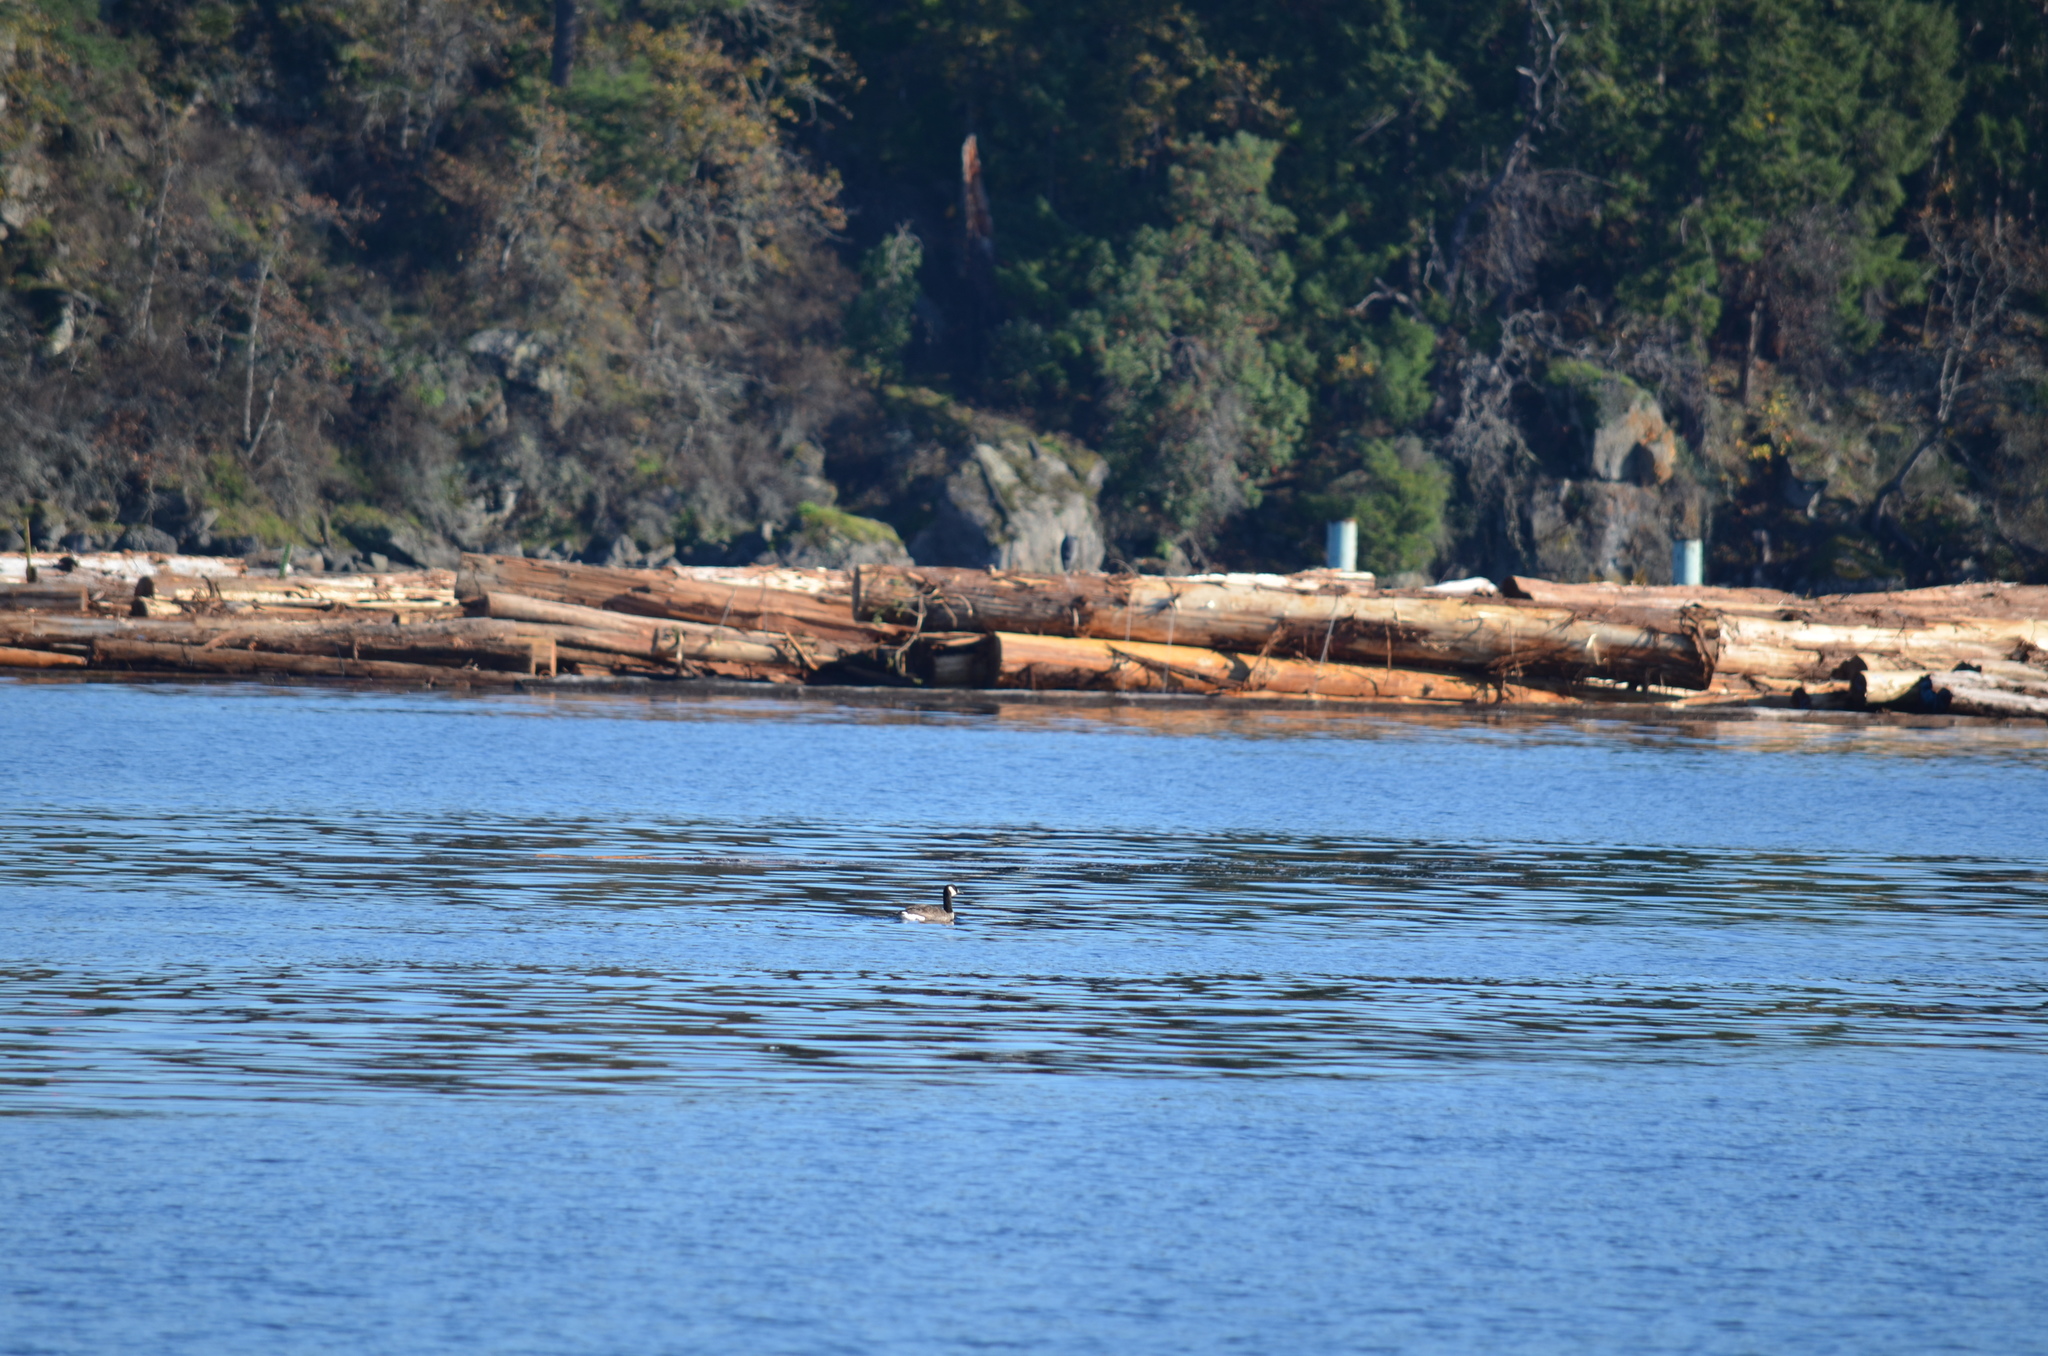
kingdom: Animalia
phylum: Chordata
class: Aves
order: Anseriformes
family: Anatidae
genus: Branta
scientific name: Branta canadensis
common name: Canada goose
